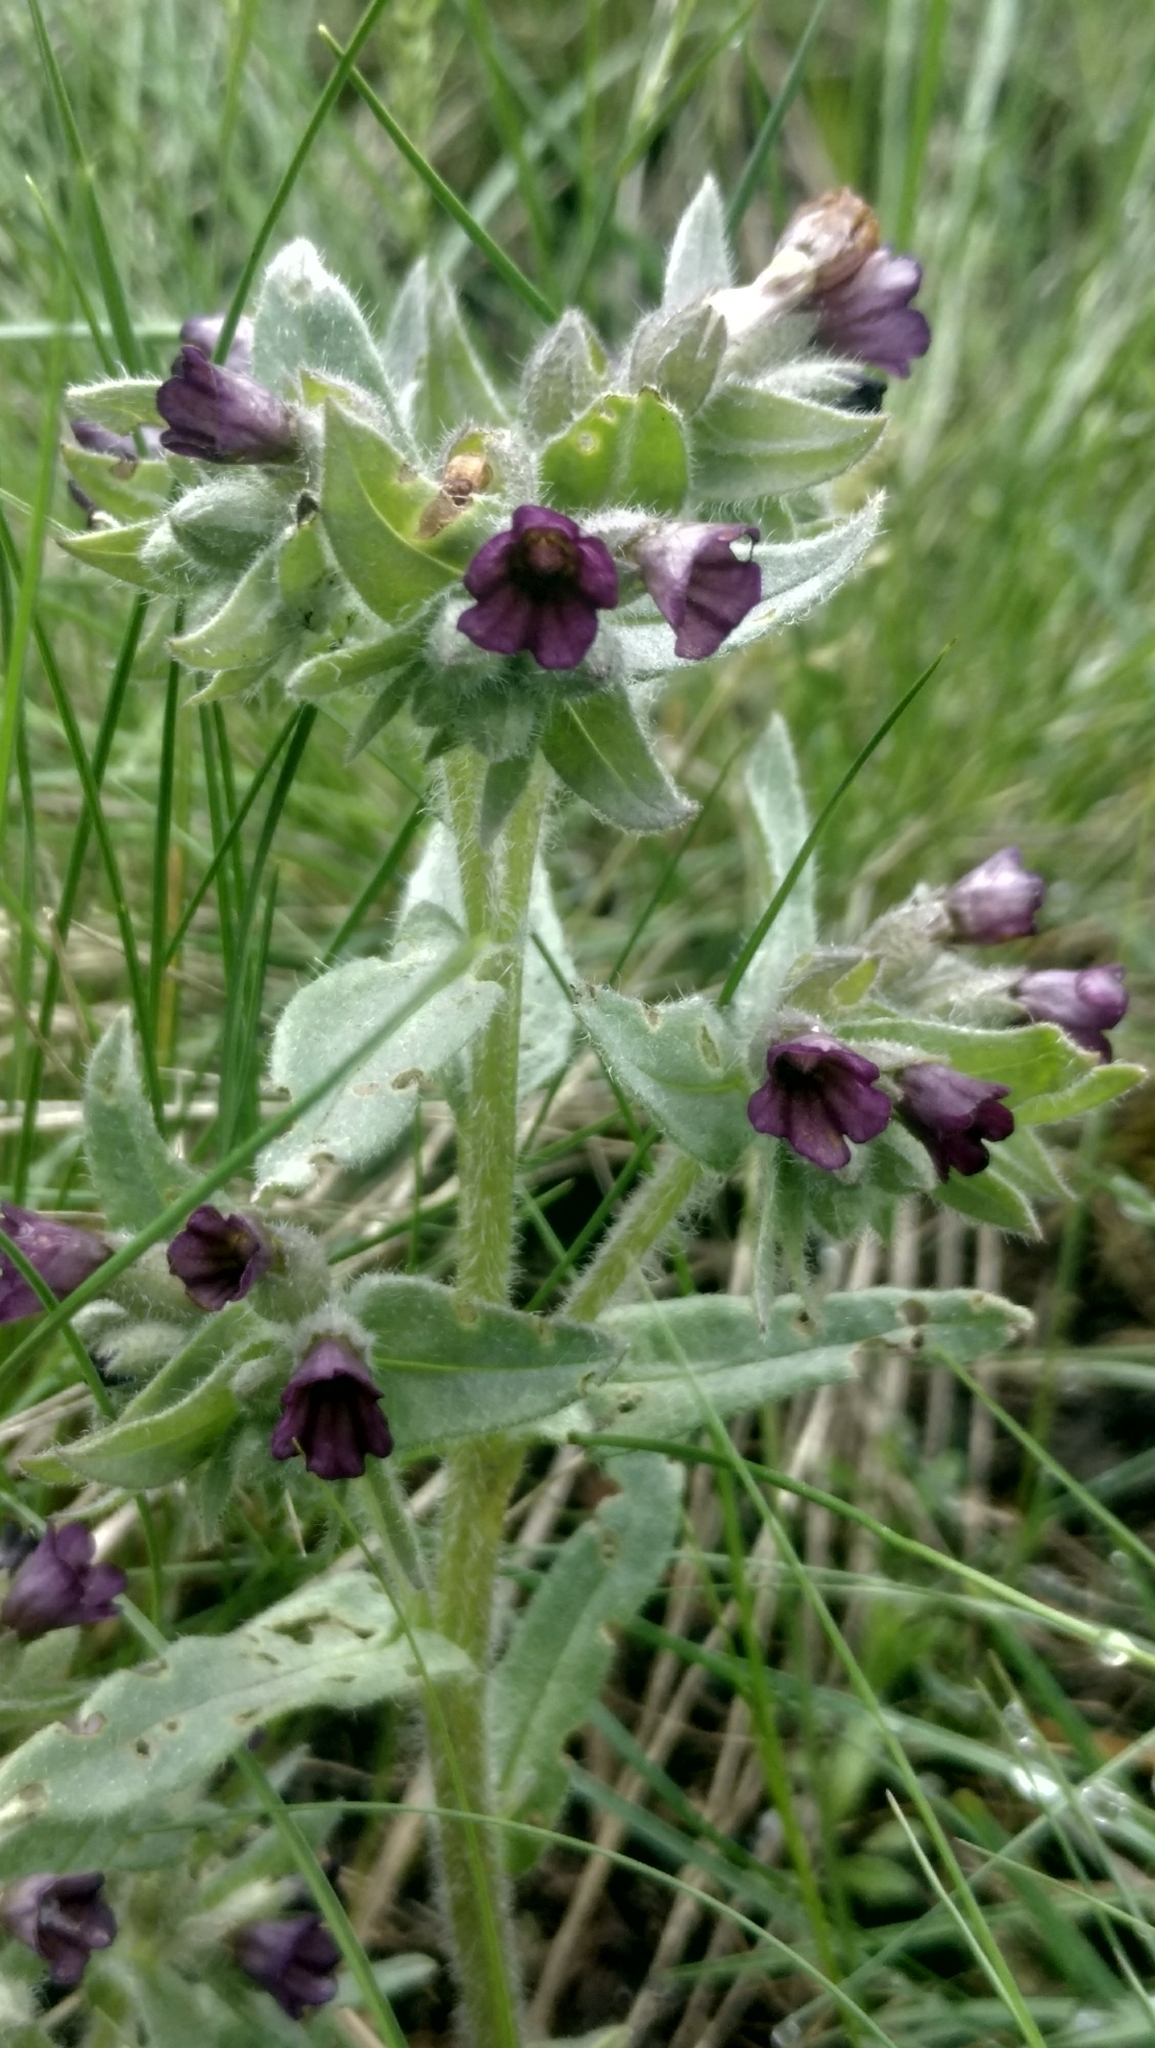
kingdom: Plantae
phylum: Tracheophyta
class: Magnoliopsida
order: Boraginales
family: Boraginaceae
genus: Nonea
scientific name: Nonea pulla
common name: Brown nonea
